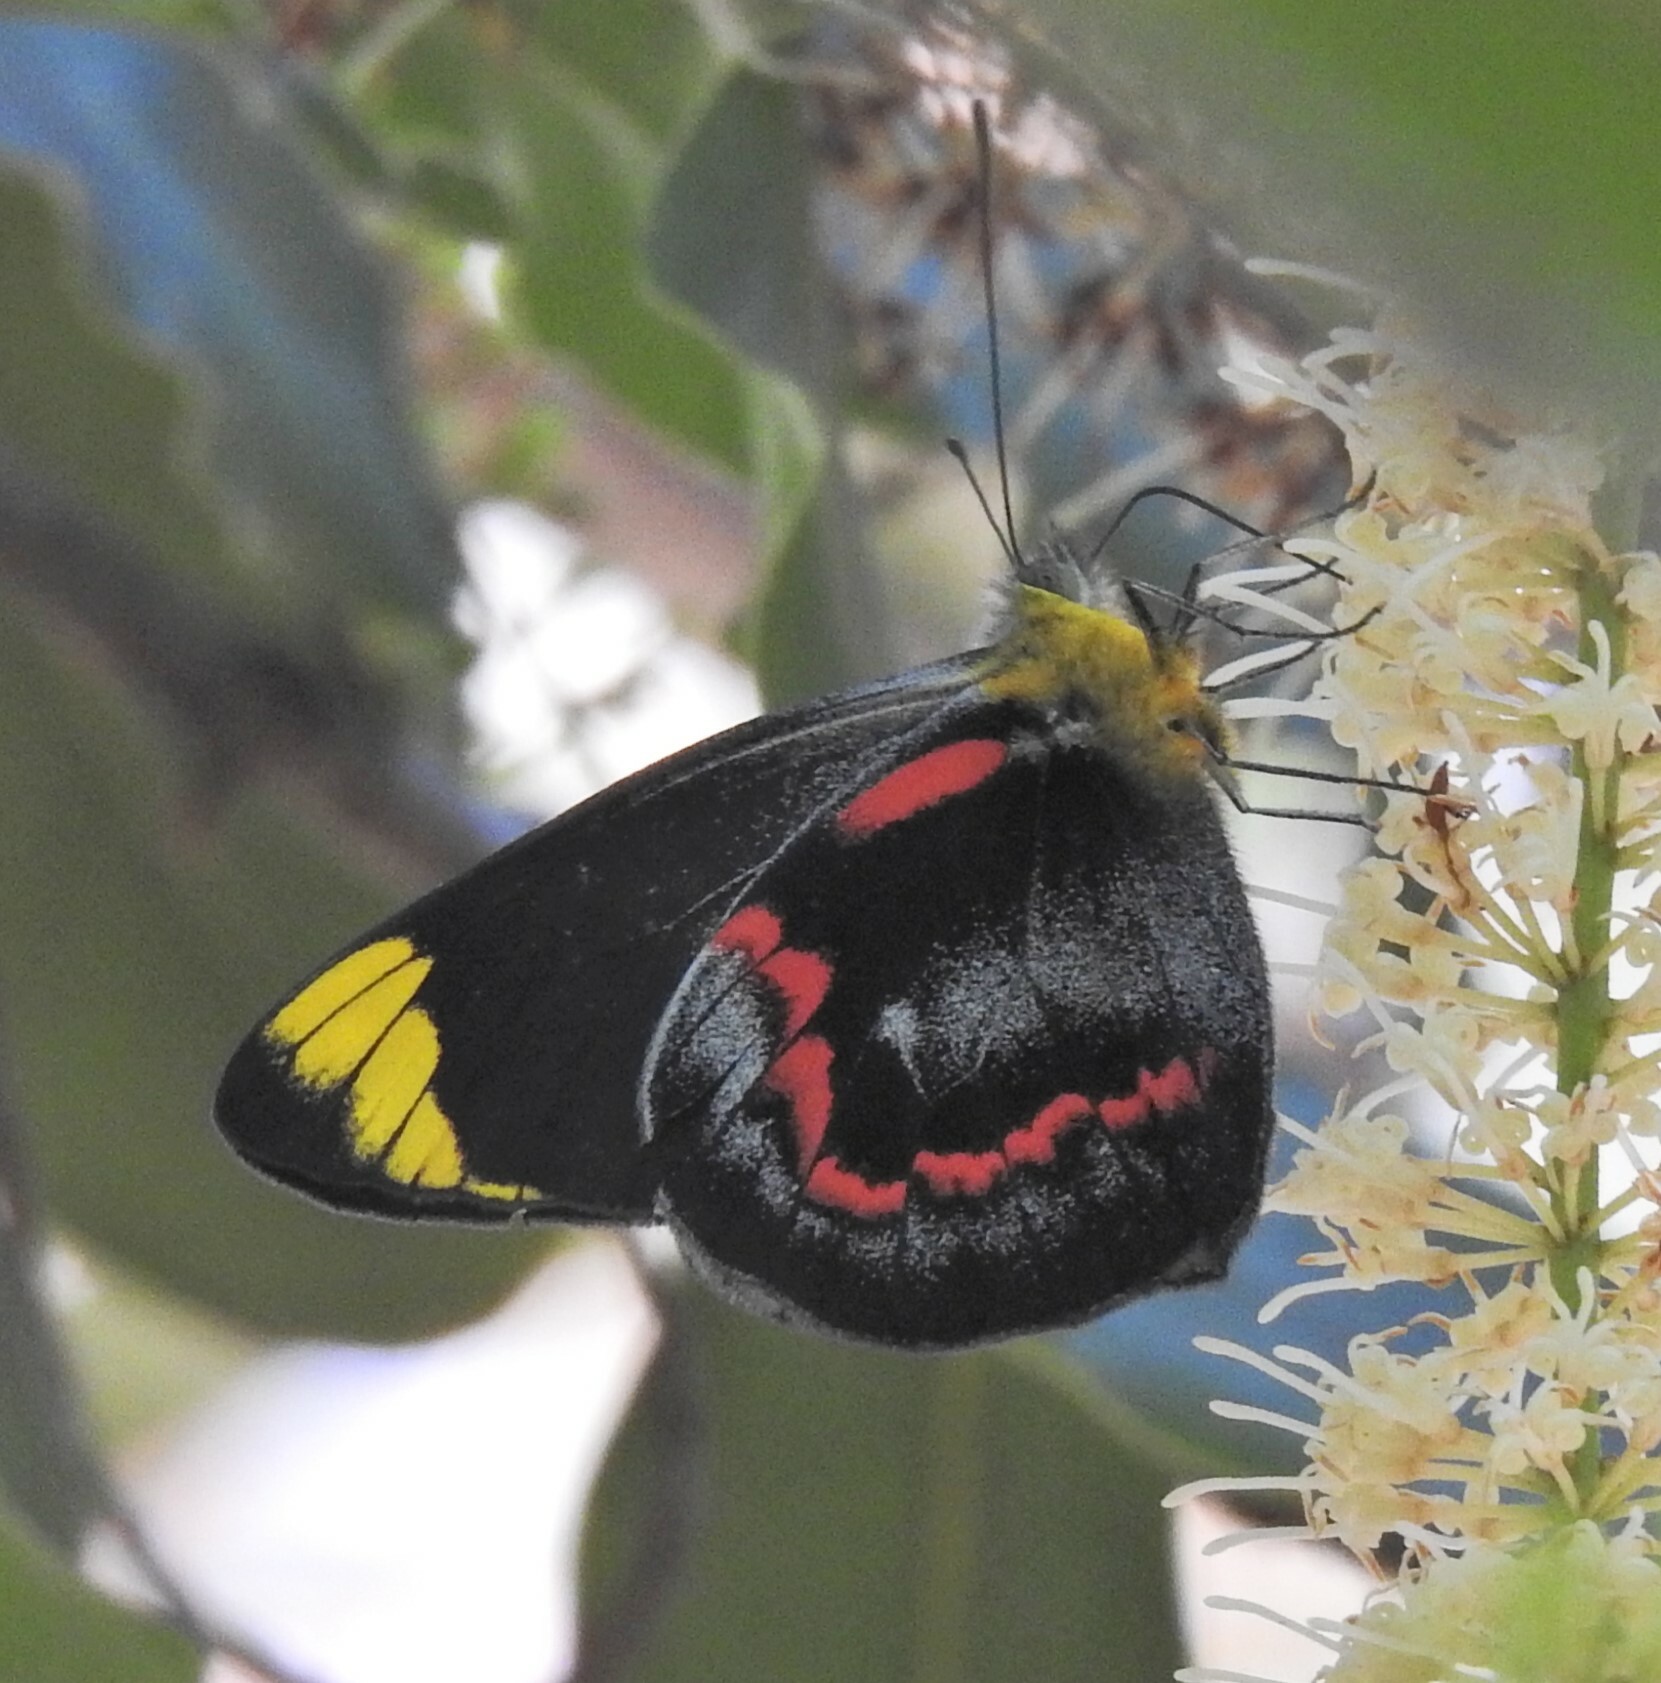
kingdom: Animalia
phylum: Arthropoda
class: Insecta
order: Lepidoptera
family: Pieridae
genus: Delias
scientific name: Delias nigrina
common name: Black jezebel
